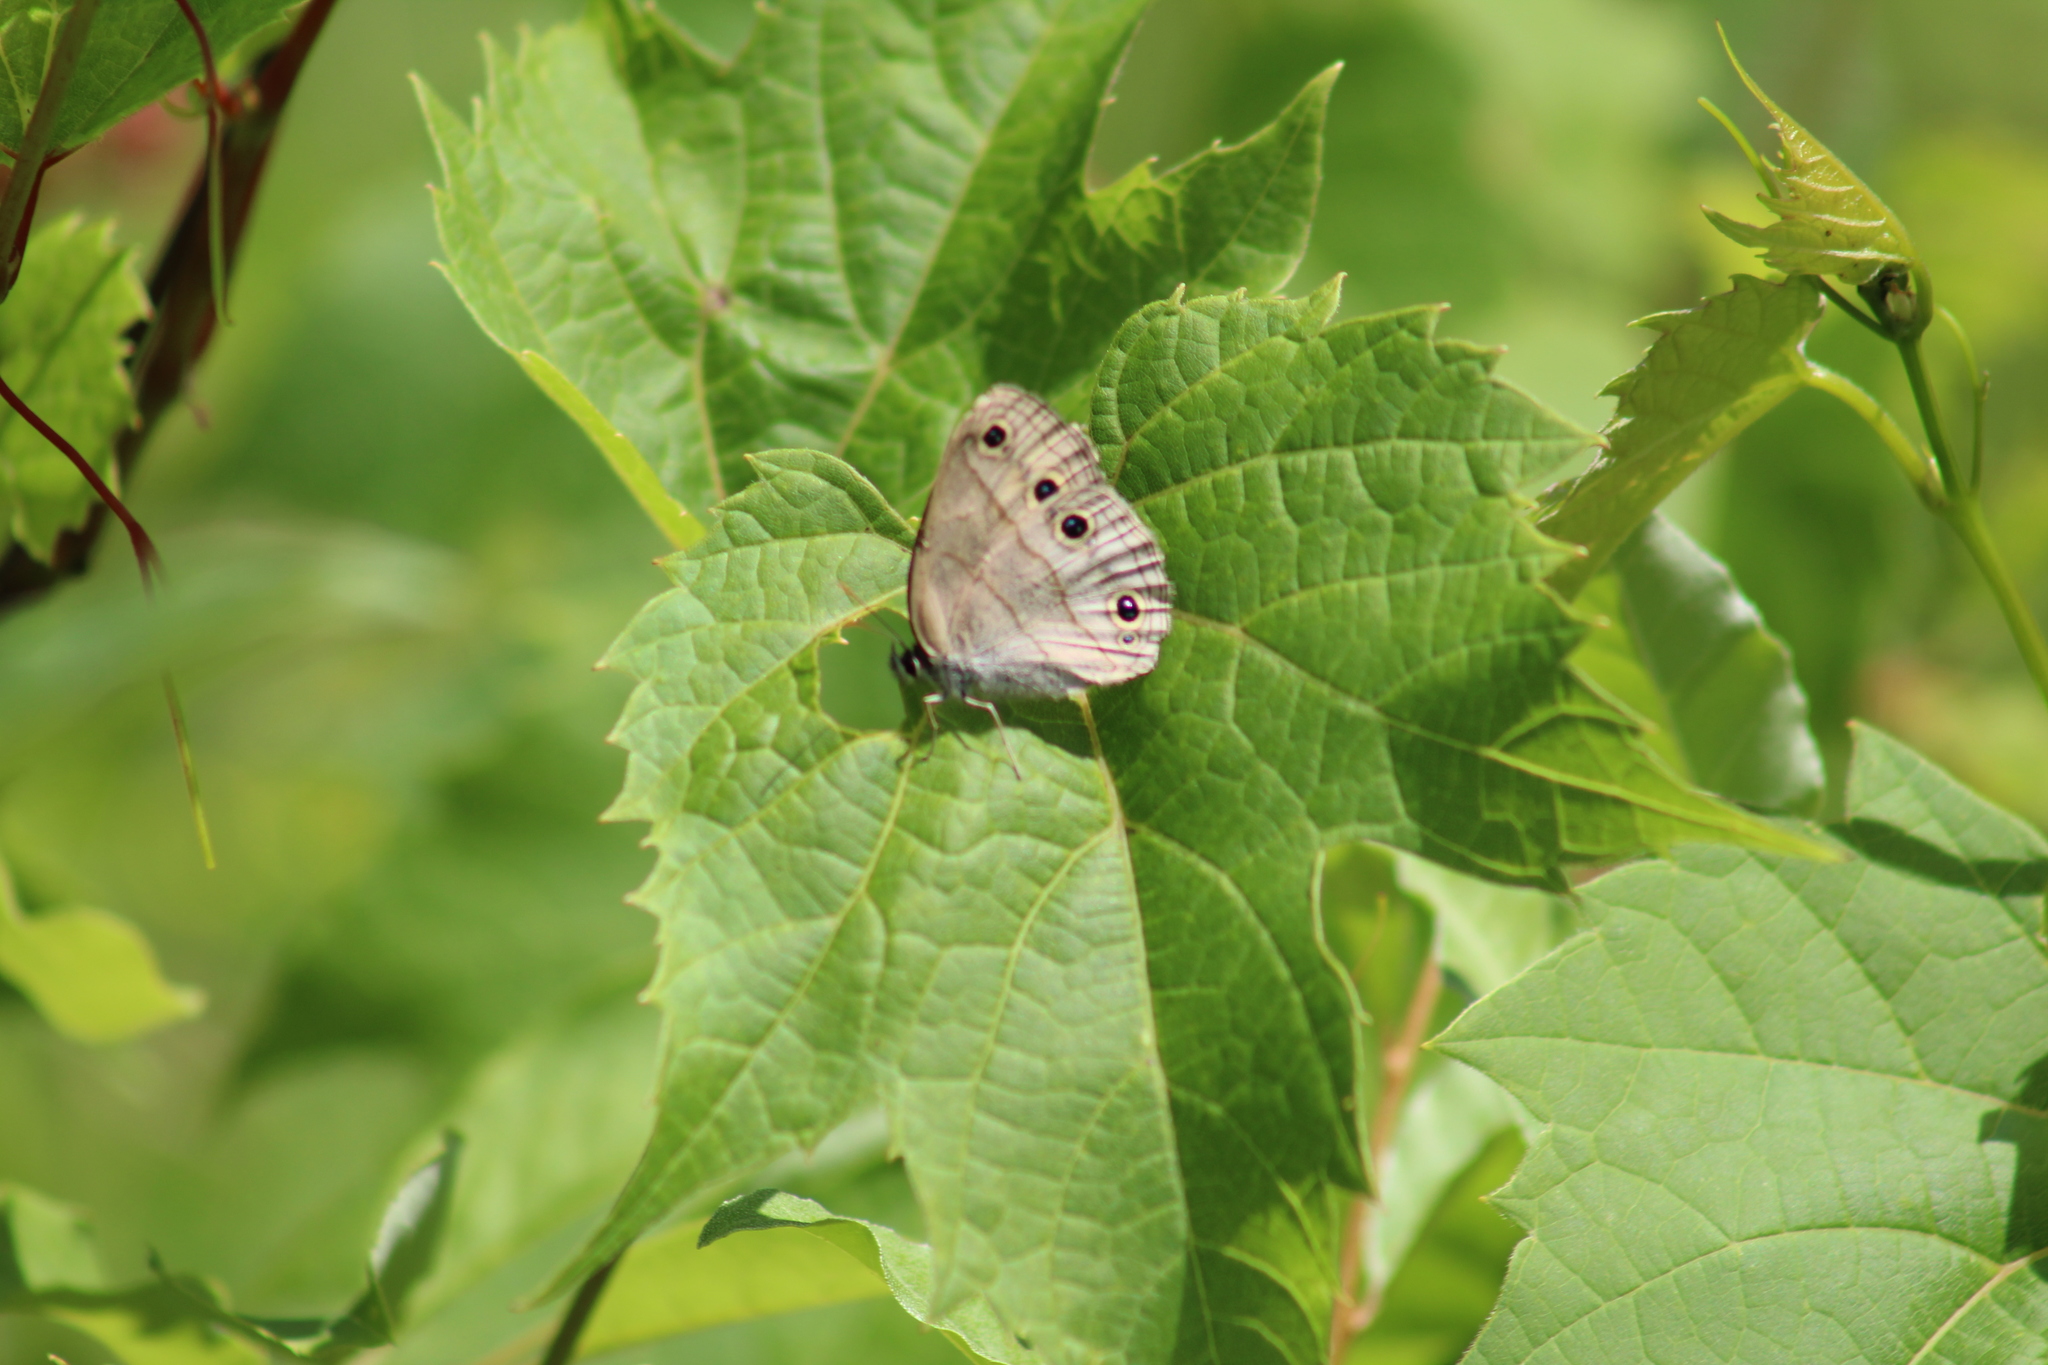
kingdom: Animalia
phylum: Arthropoda
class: Insecta
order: Lepidoptera
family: Nymphalidae
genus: Euptychia
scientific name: Euptychia cymela
